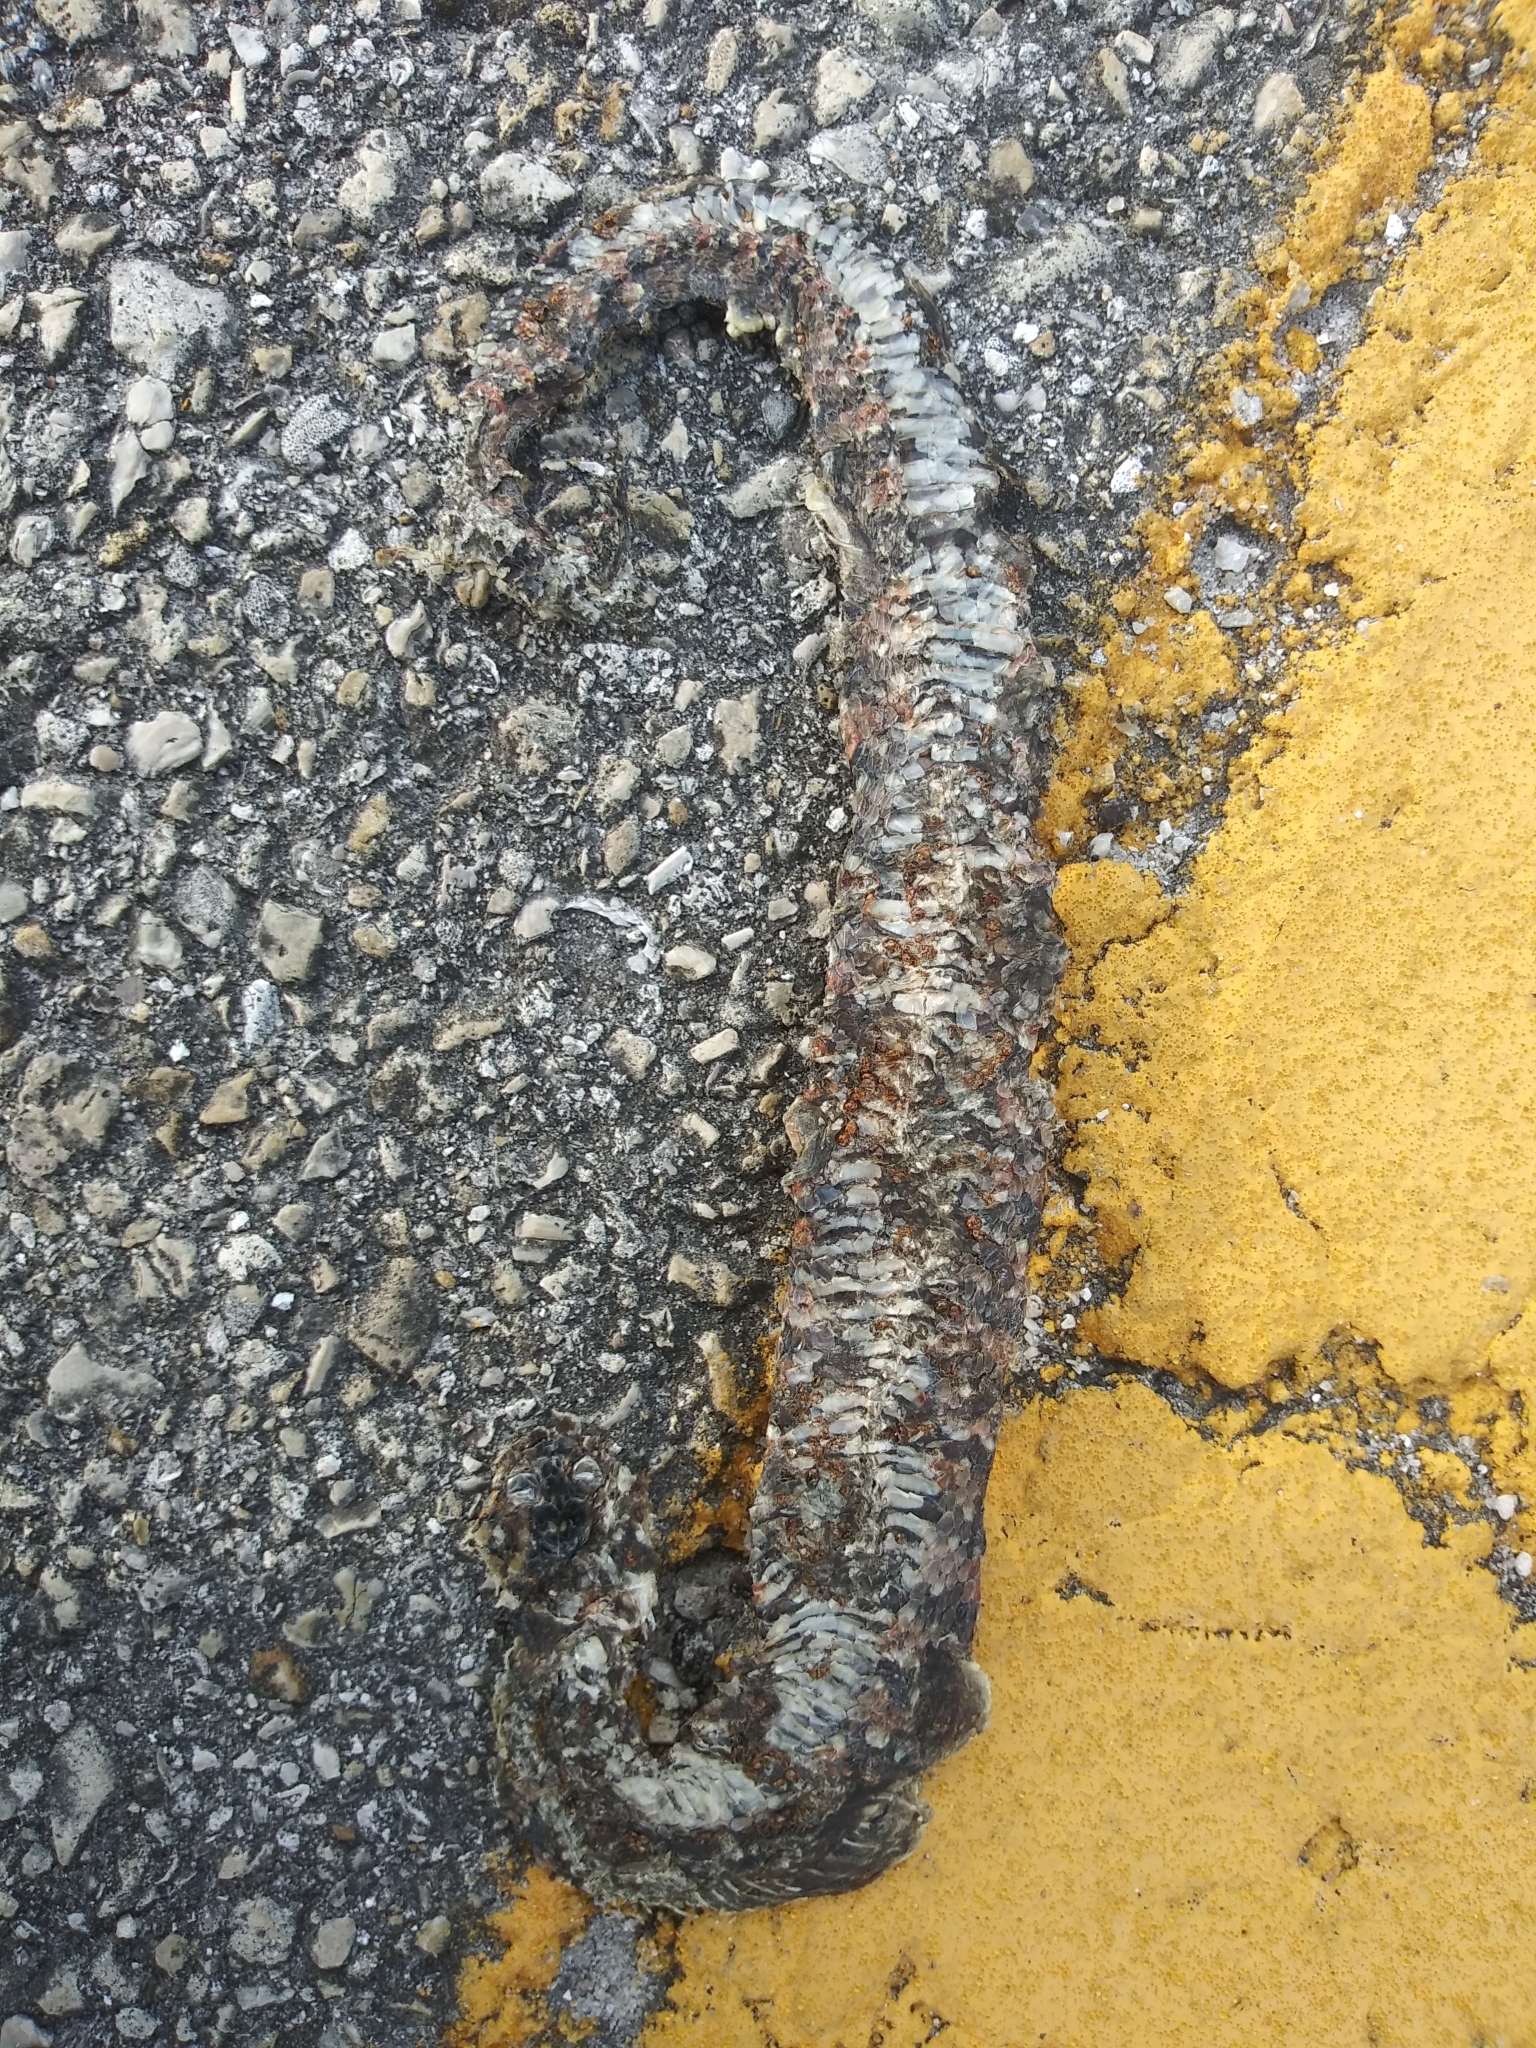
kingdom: Animalia
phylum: Chordata
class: Squamata
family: Colubridae
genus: Nerodia
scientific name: Nerodia fasciata
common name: Southern water snake
